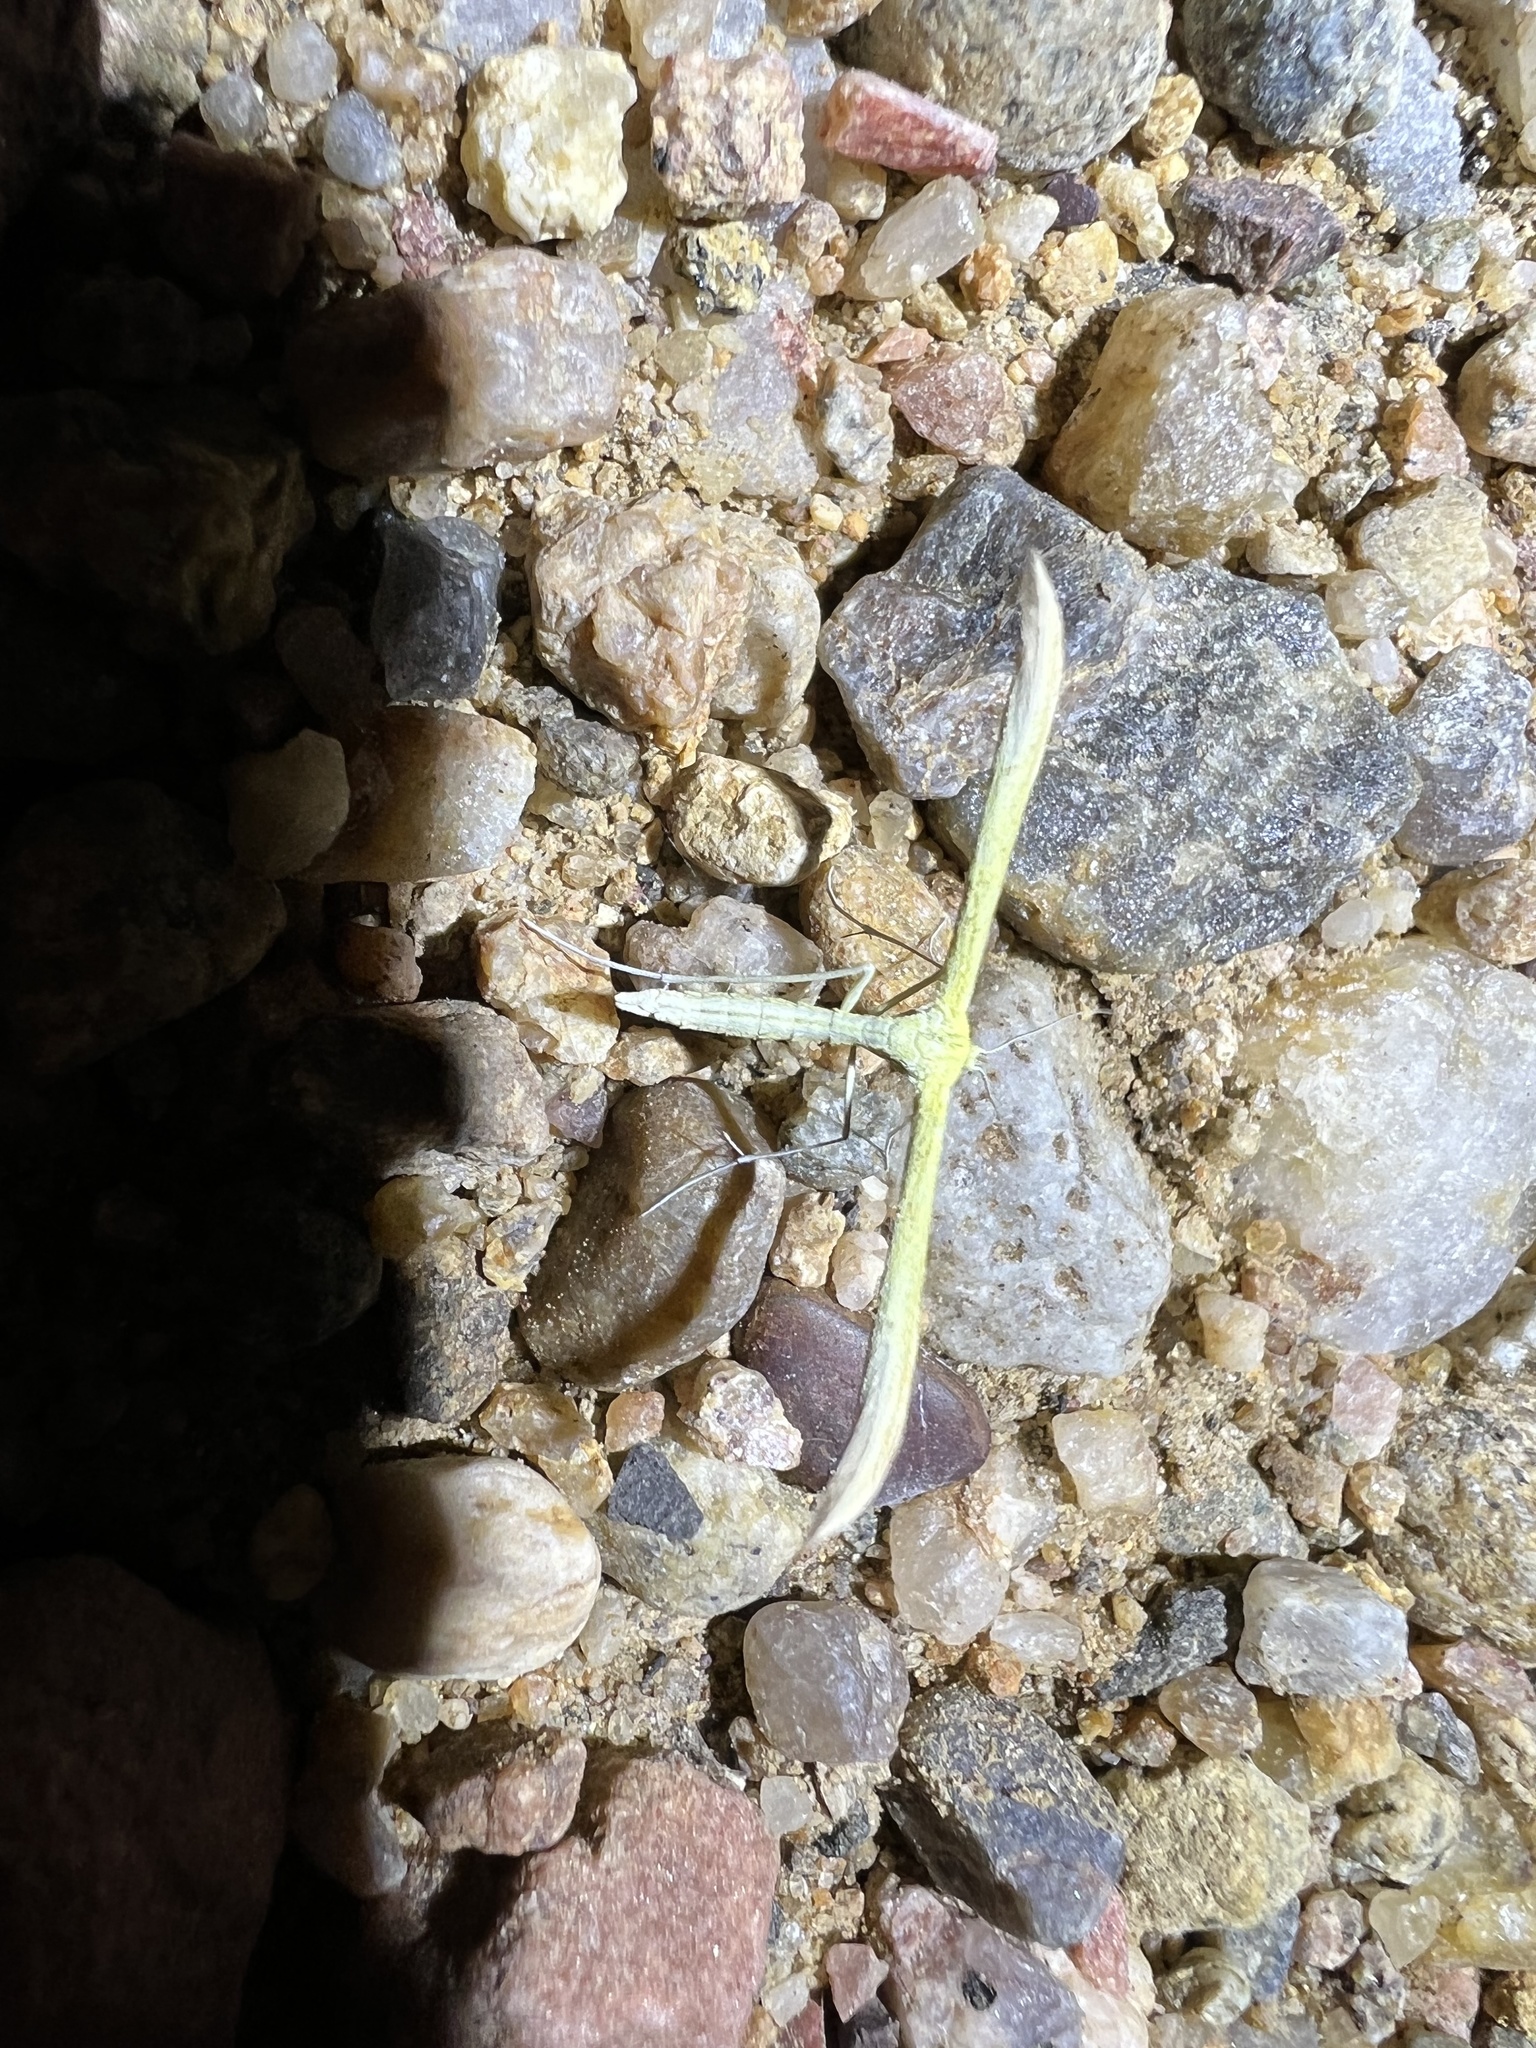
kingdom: Animalia
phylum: Arthropoda
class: Insecta
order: Lepidoptera
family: Pterophoridae
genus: Hellinsia
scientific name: Hellinsia sulphureodactylus
